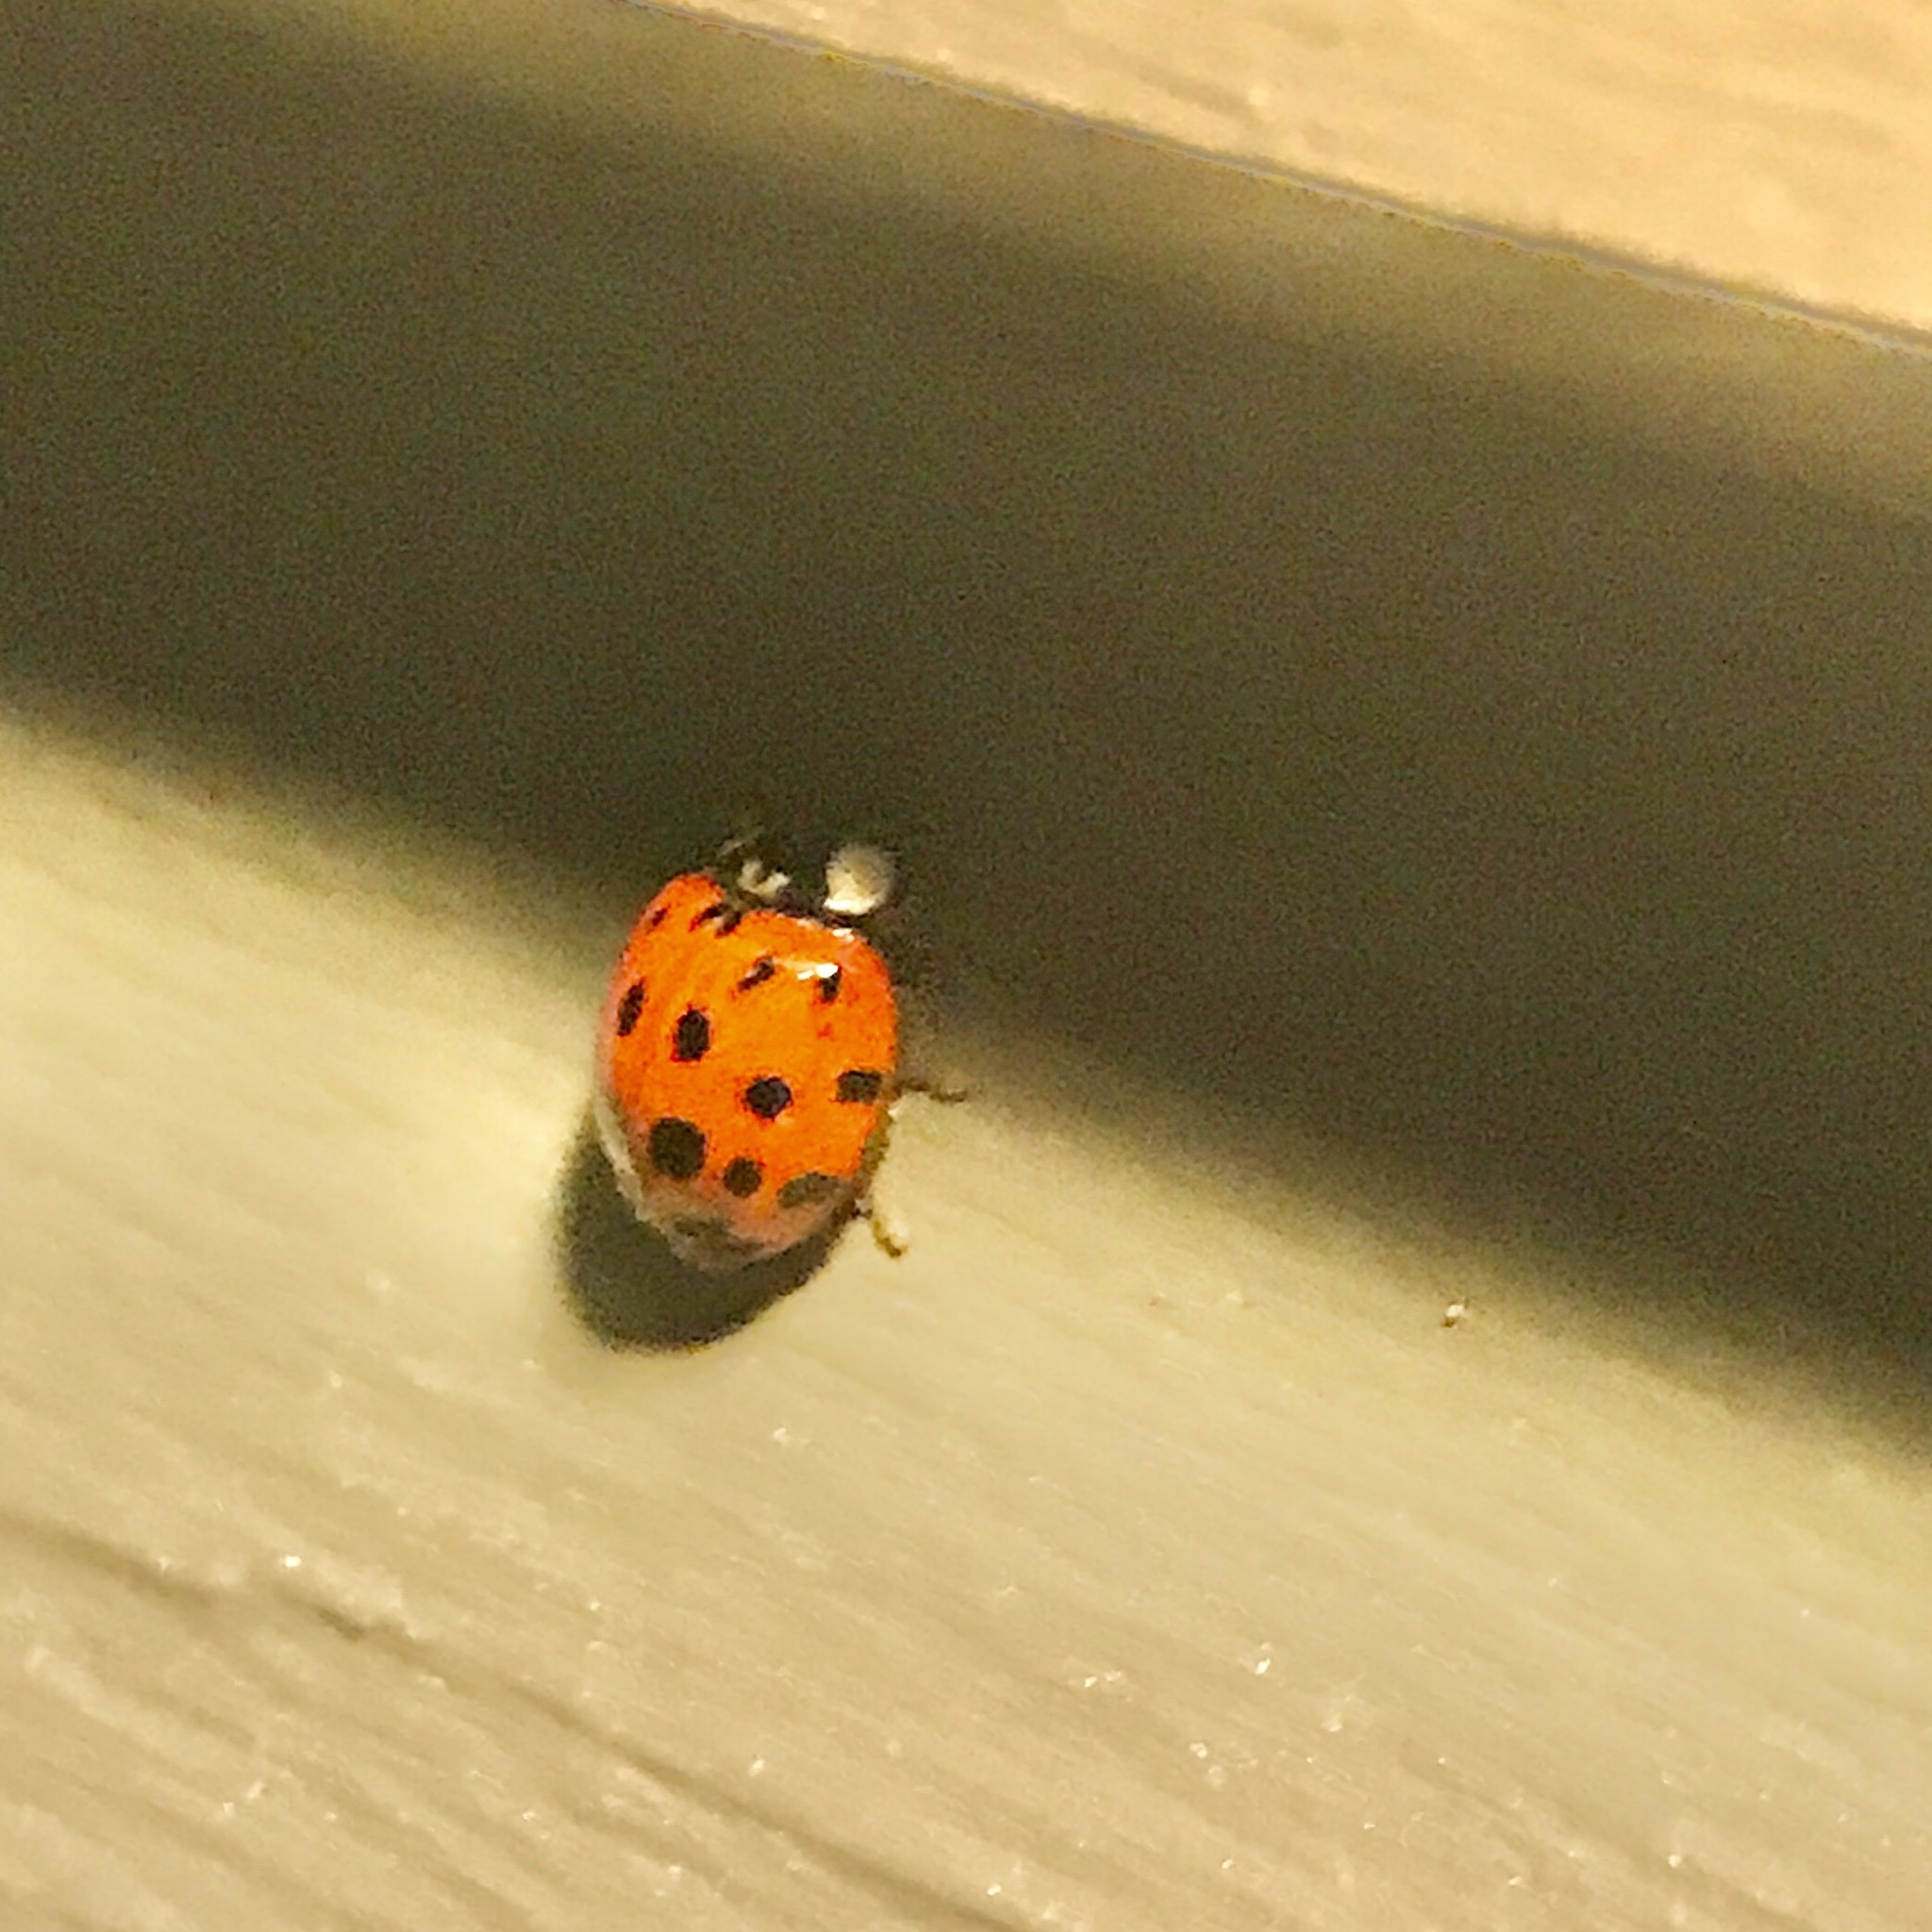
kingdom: Animalia
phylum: Arthropoda
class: Insecta
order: Coleoptera
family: Coccinellidae
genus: Harmonia
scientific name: Harmonia axyridis
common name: Harlequin ladybird
